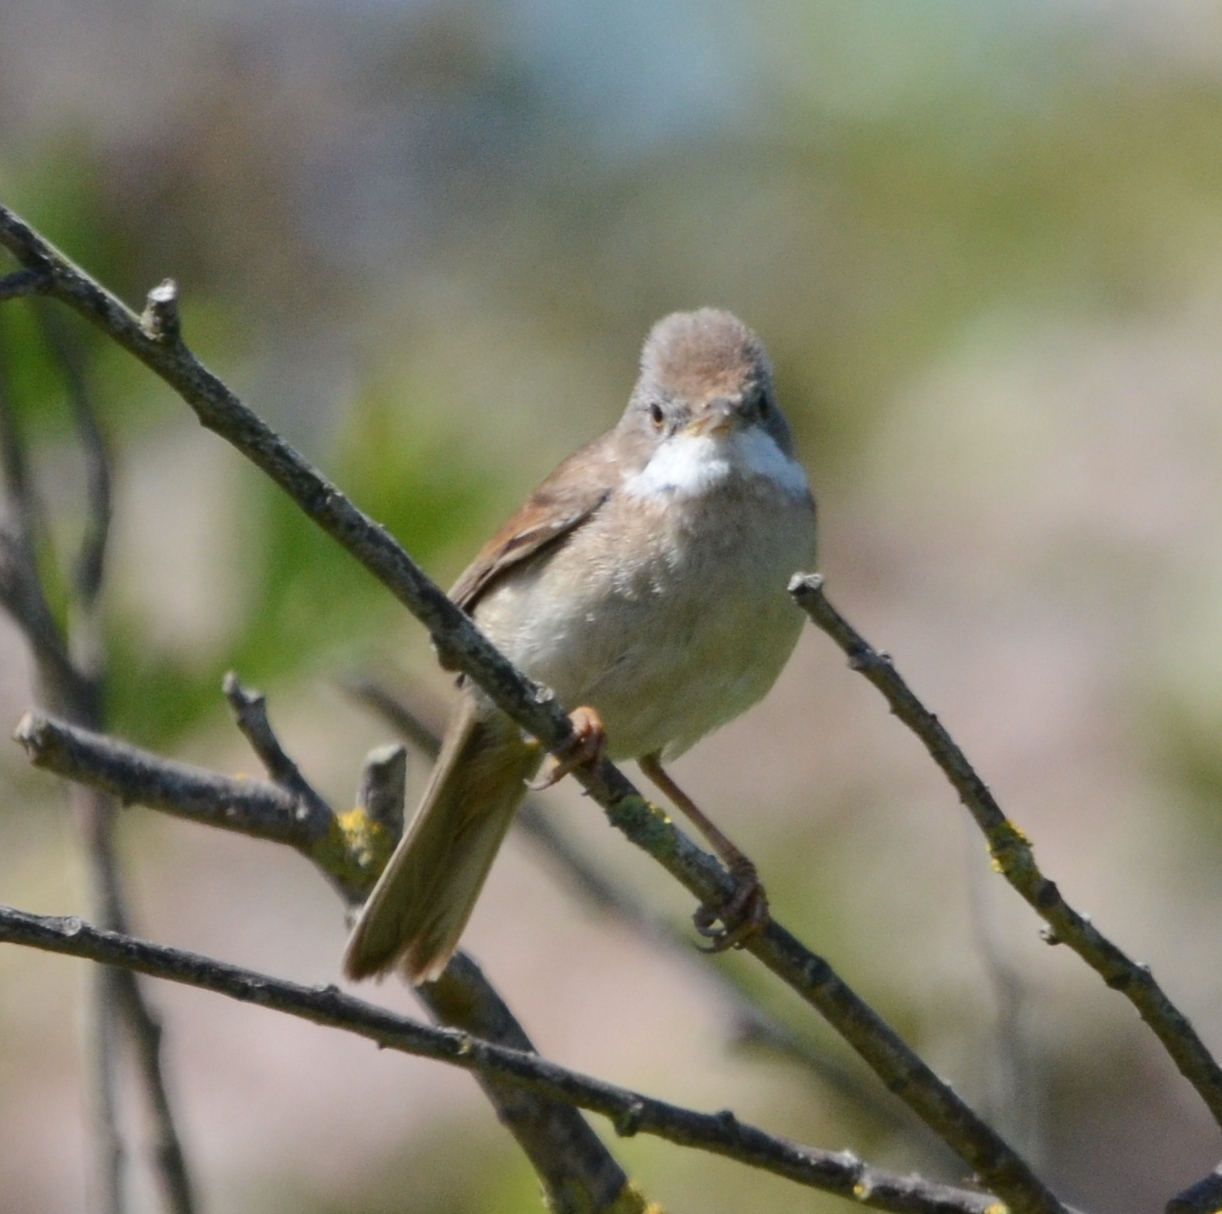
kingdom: Animalia
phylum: Chordata
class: Aves
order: Passeriformes
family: Sylviidae
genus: Sylvia
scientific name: Sylvia communis
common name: Common whitethroat
